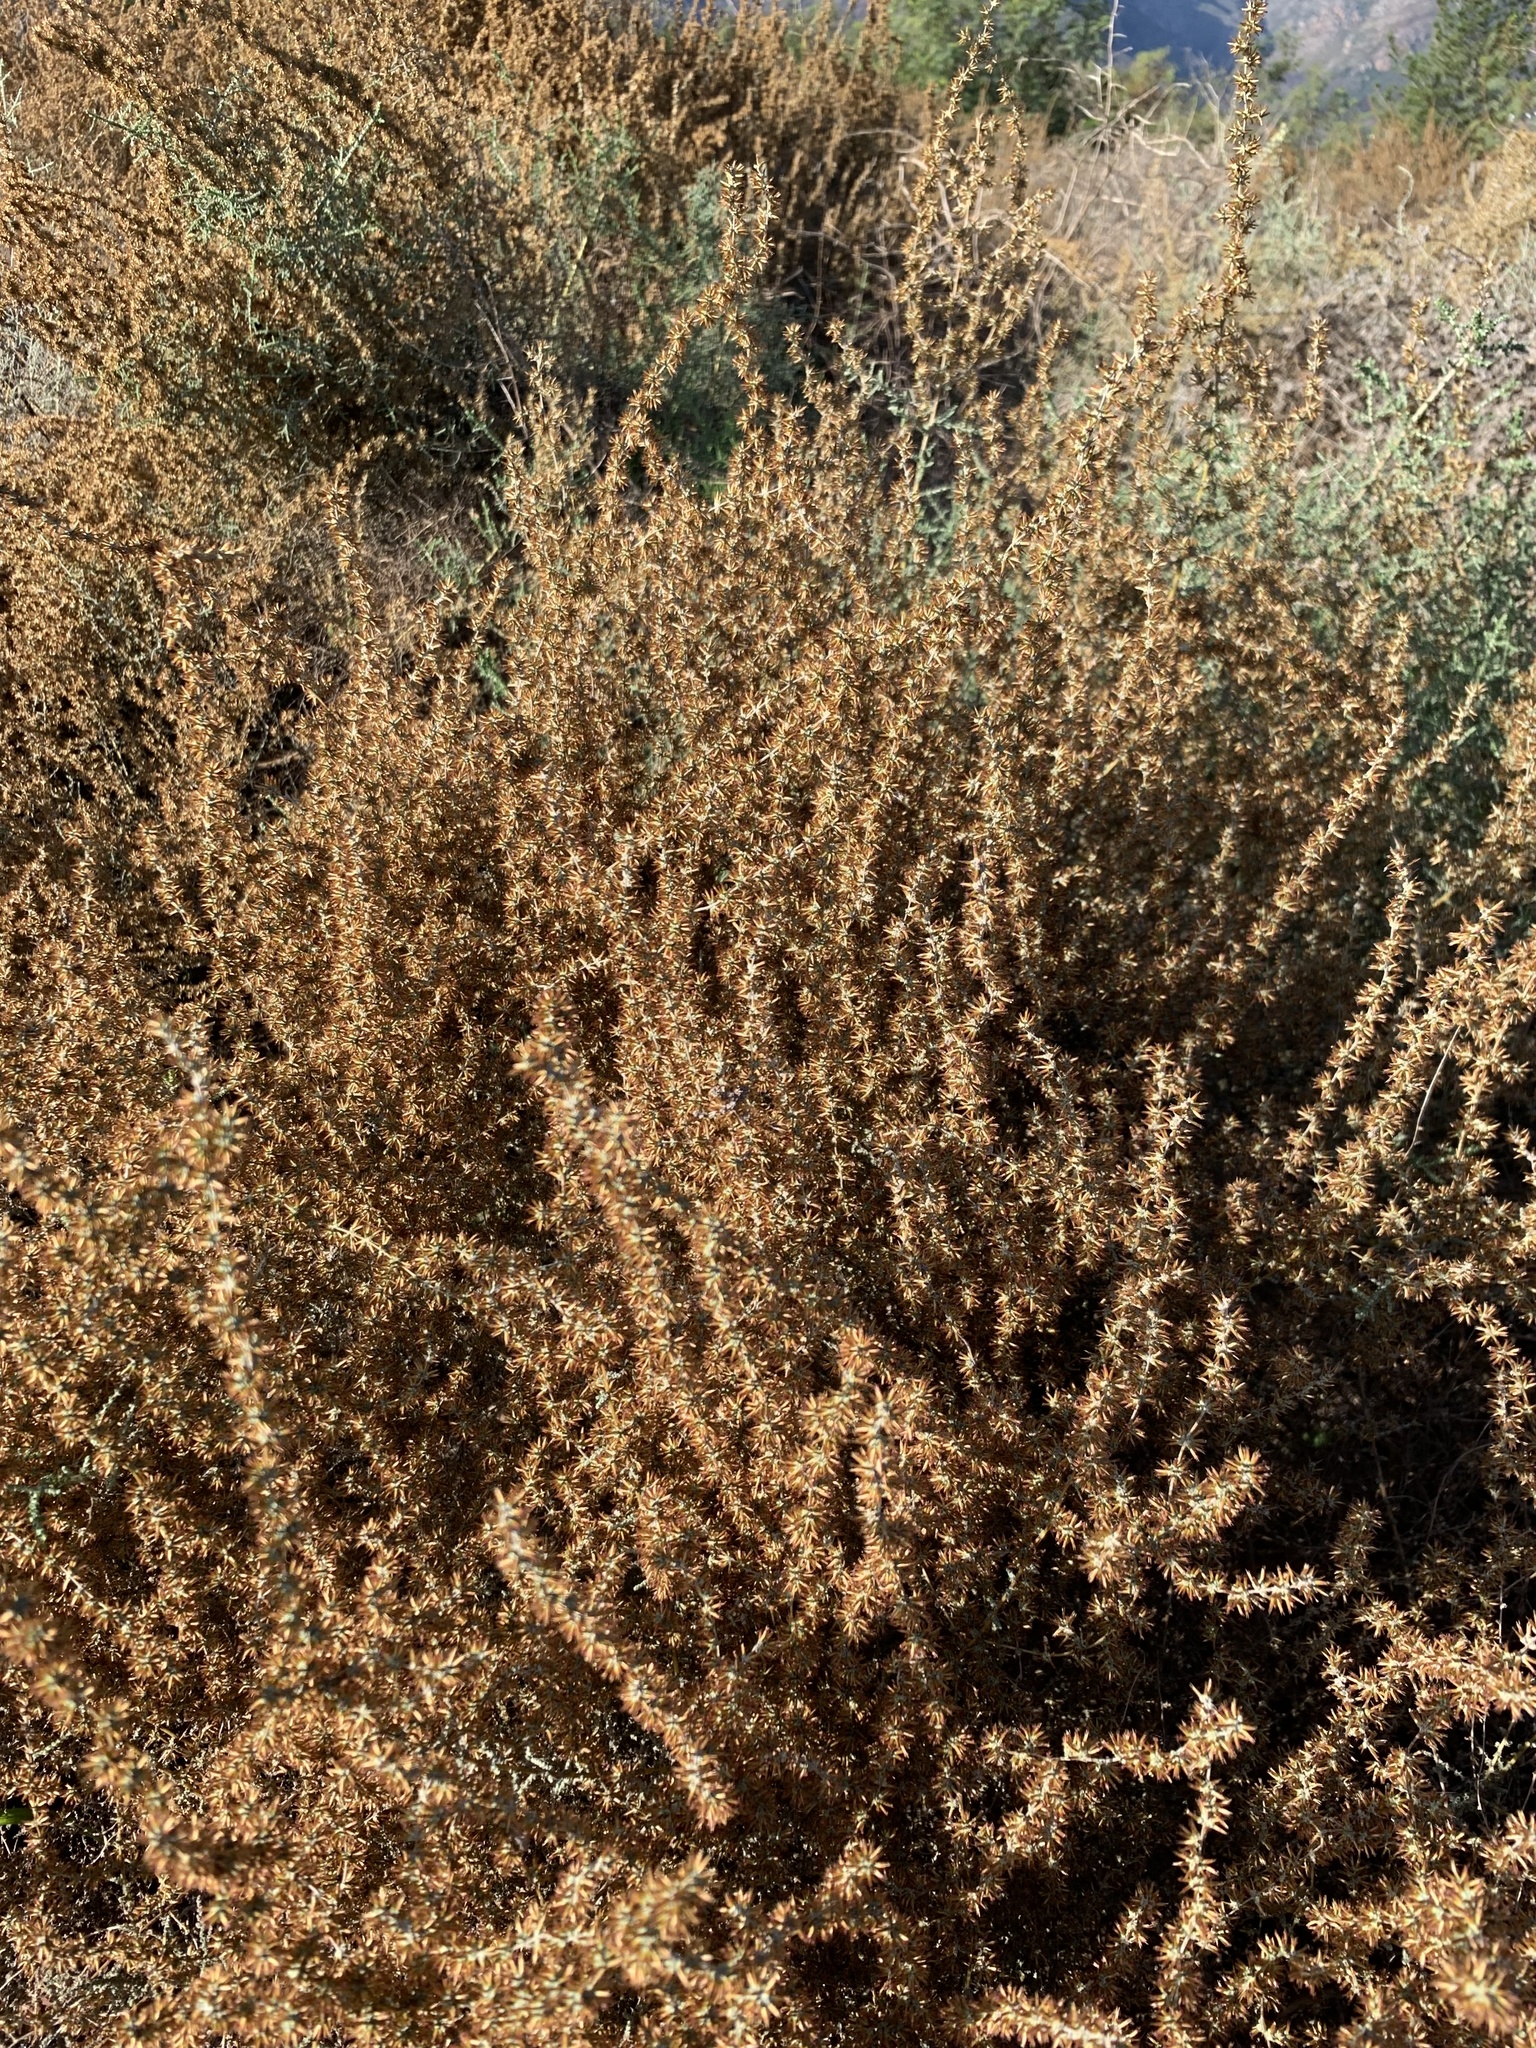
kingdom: Plantae
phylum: Tracheophyta
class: Magnoliopsida
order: Asterales
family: Asteraceae
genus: Seriphium
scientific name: Seriphium plumosum
